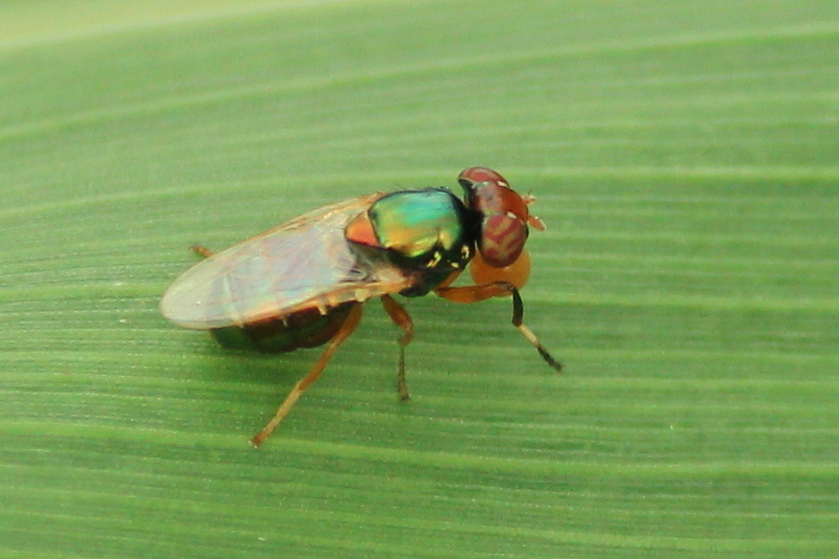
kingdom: Animalia
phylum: Arthropoda
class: Insecta
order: Diptera
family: Ulidiidae
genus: Physiphora
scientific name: Physiphora clausa
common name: Picture-winged fly
